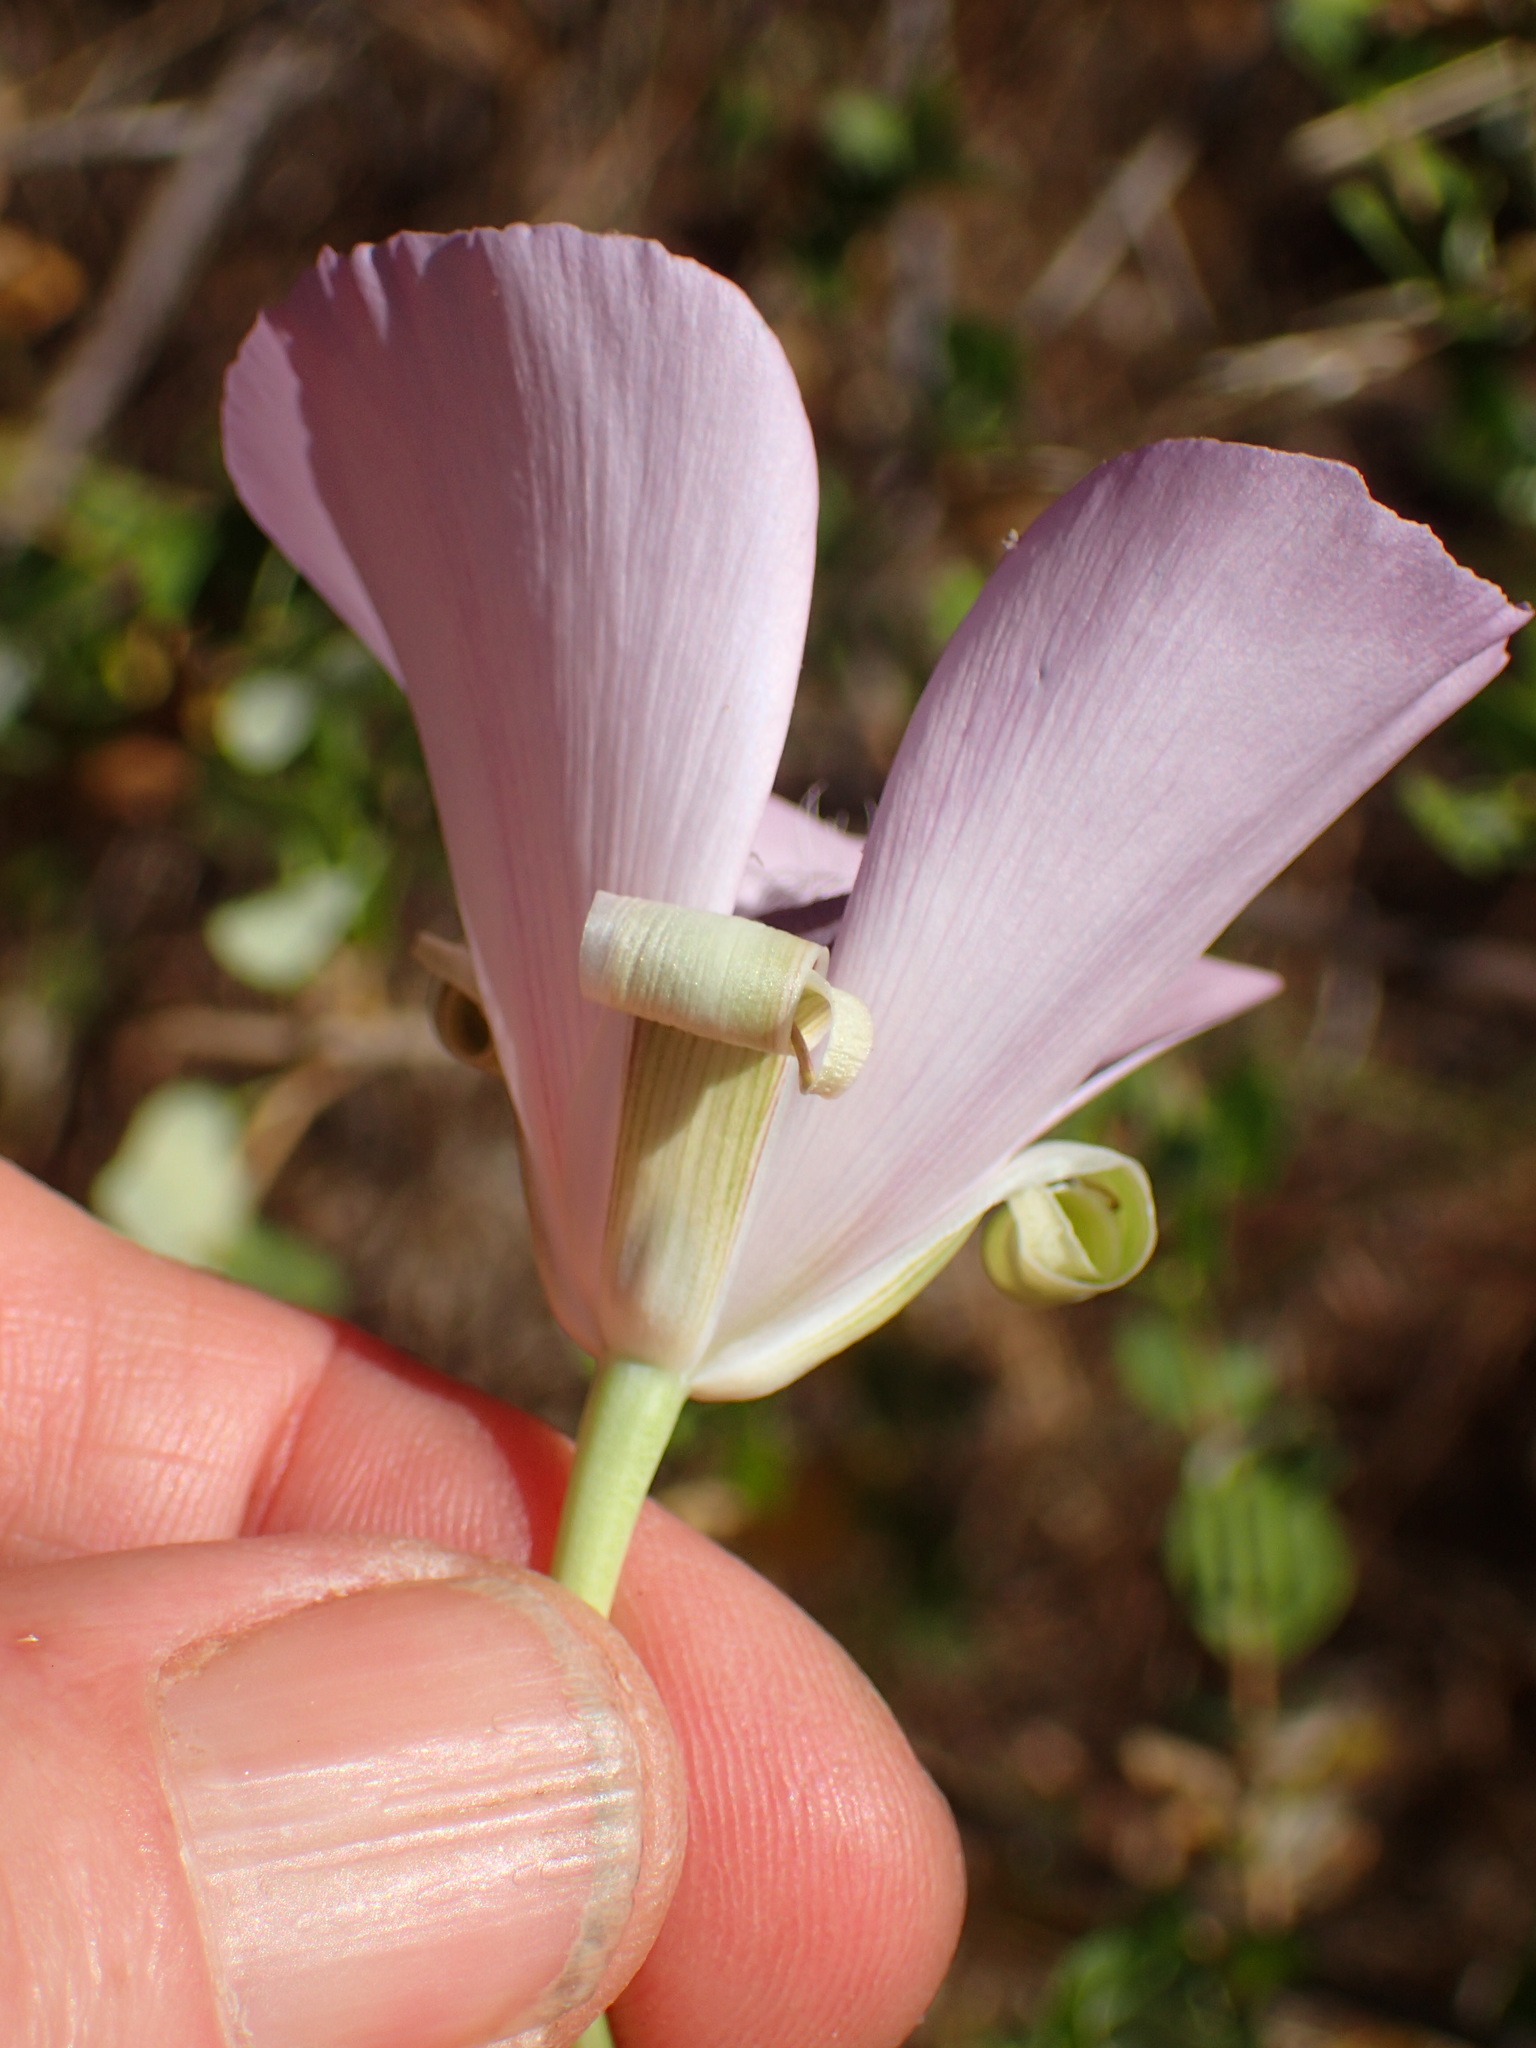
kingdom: Plantae
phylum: Tracheophyta
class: Liliopsida
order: Liliales
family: Liliaceae
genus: Calochortus
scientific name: Calochortus splendens
